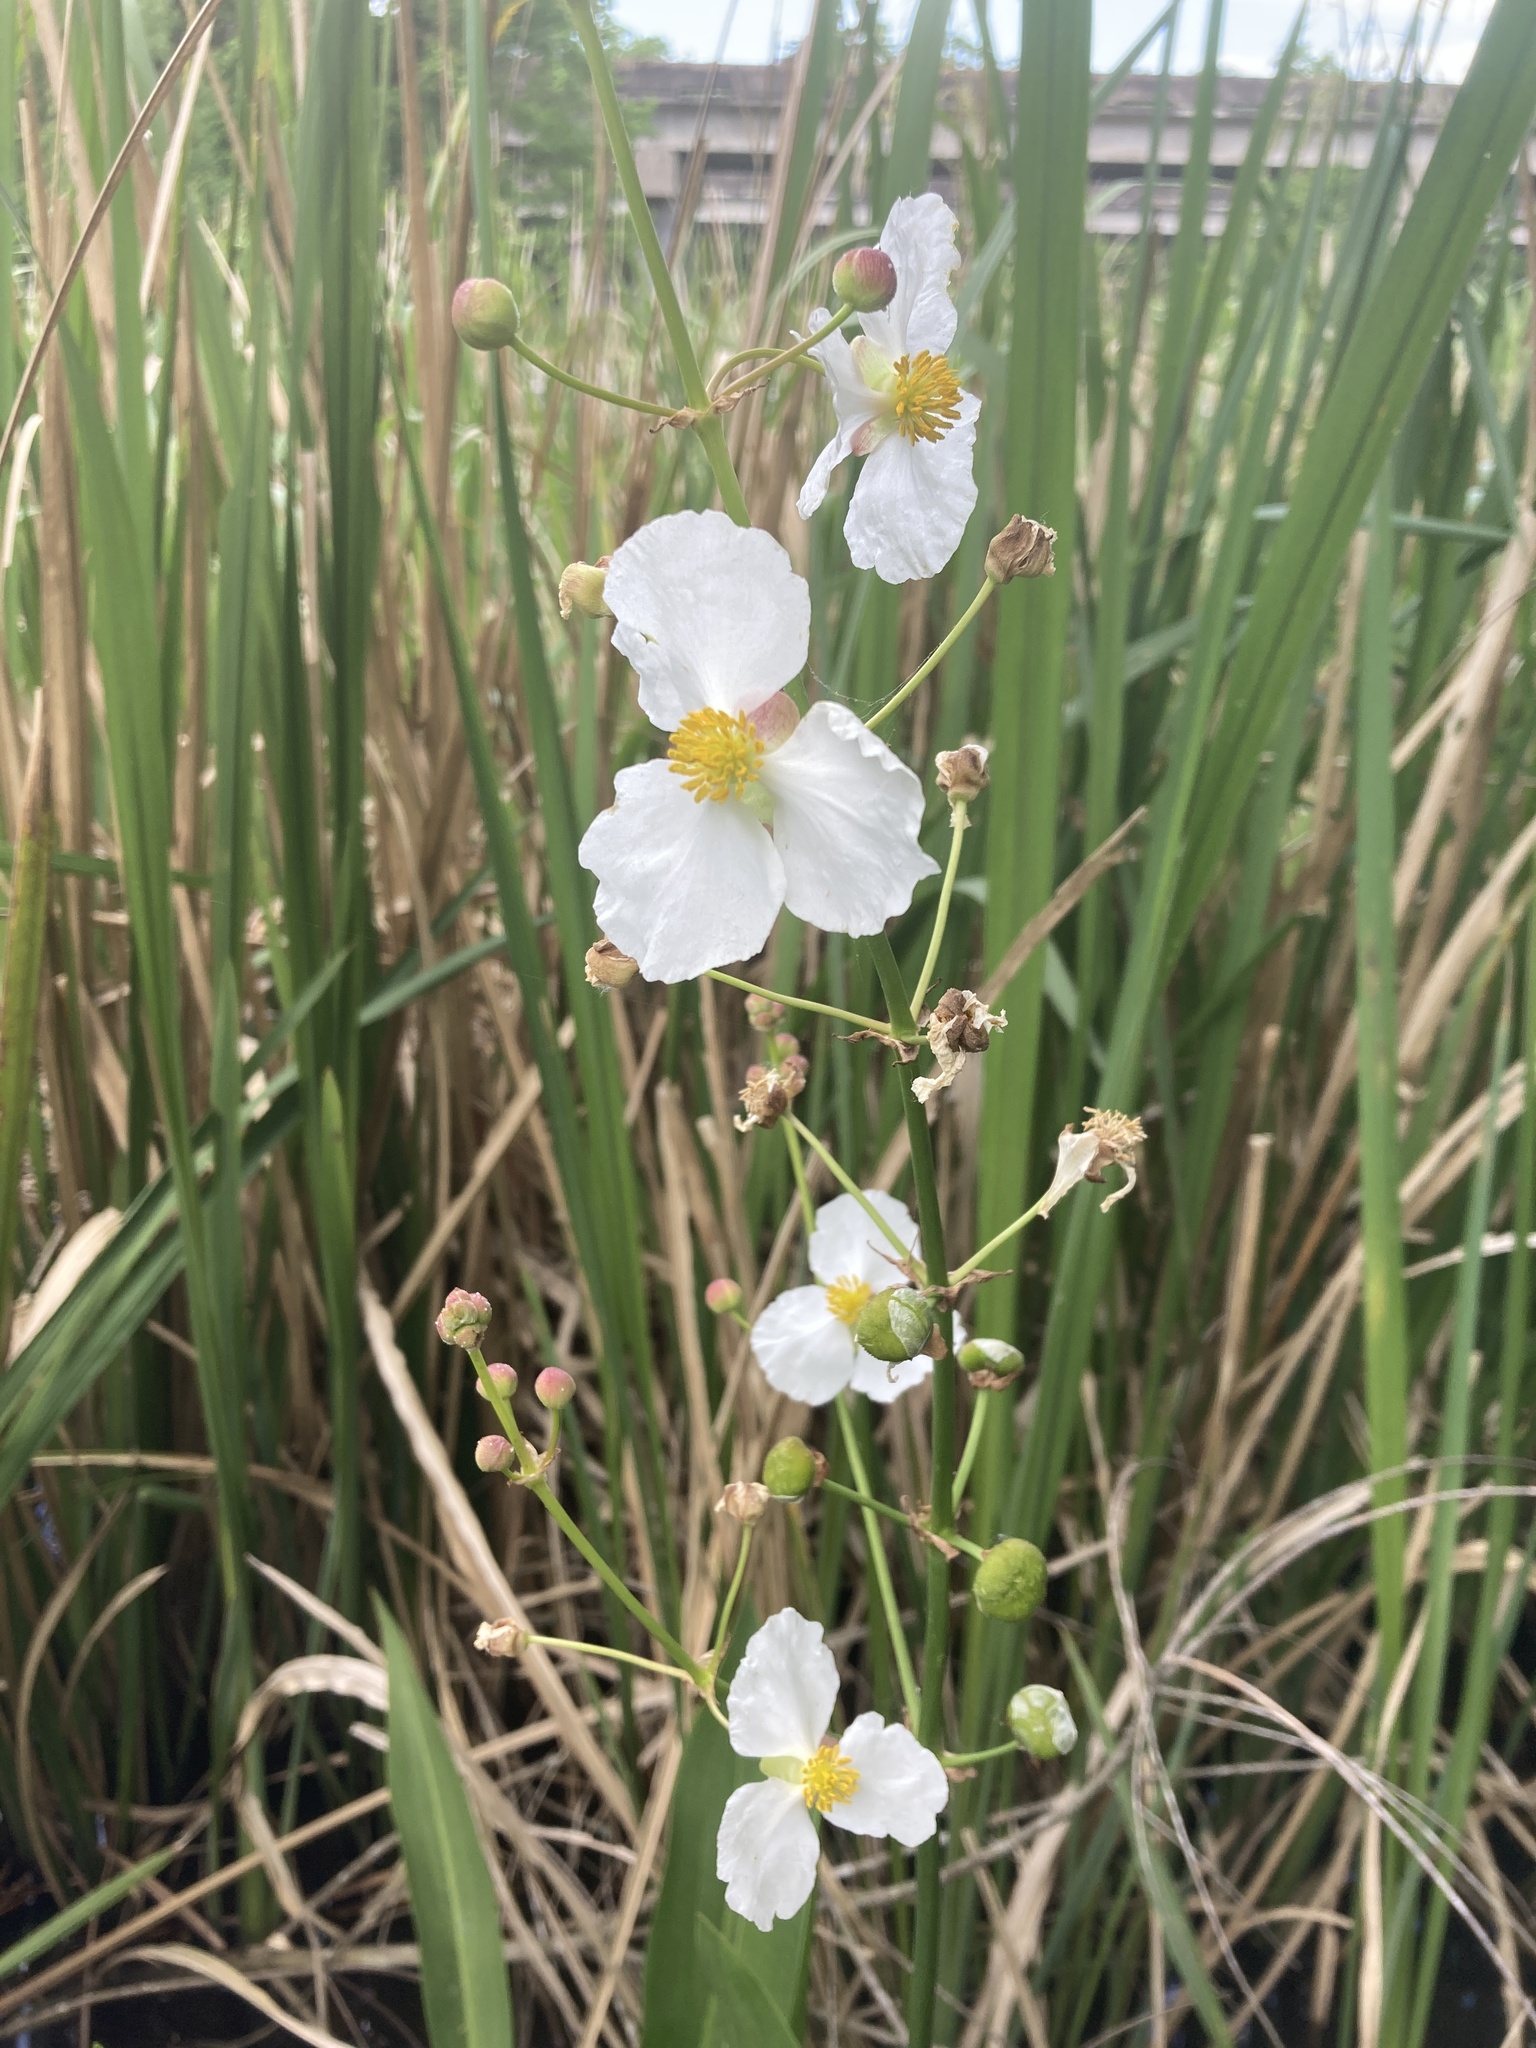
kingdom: Plantae
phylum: Tracheophyta
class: Liliopsida
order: Alismatales
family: Alismataceae
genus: Sagittaria
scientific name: Sagittaria lancifolia
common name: Lance-leaf arrowhead
